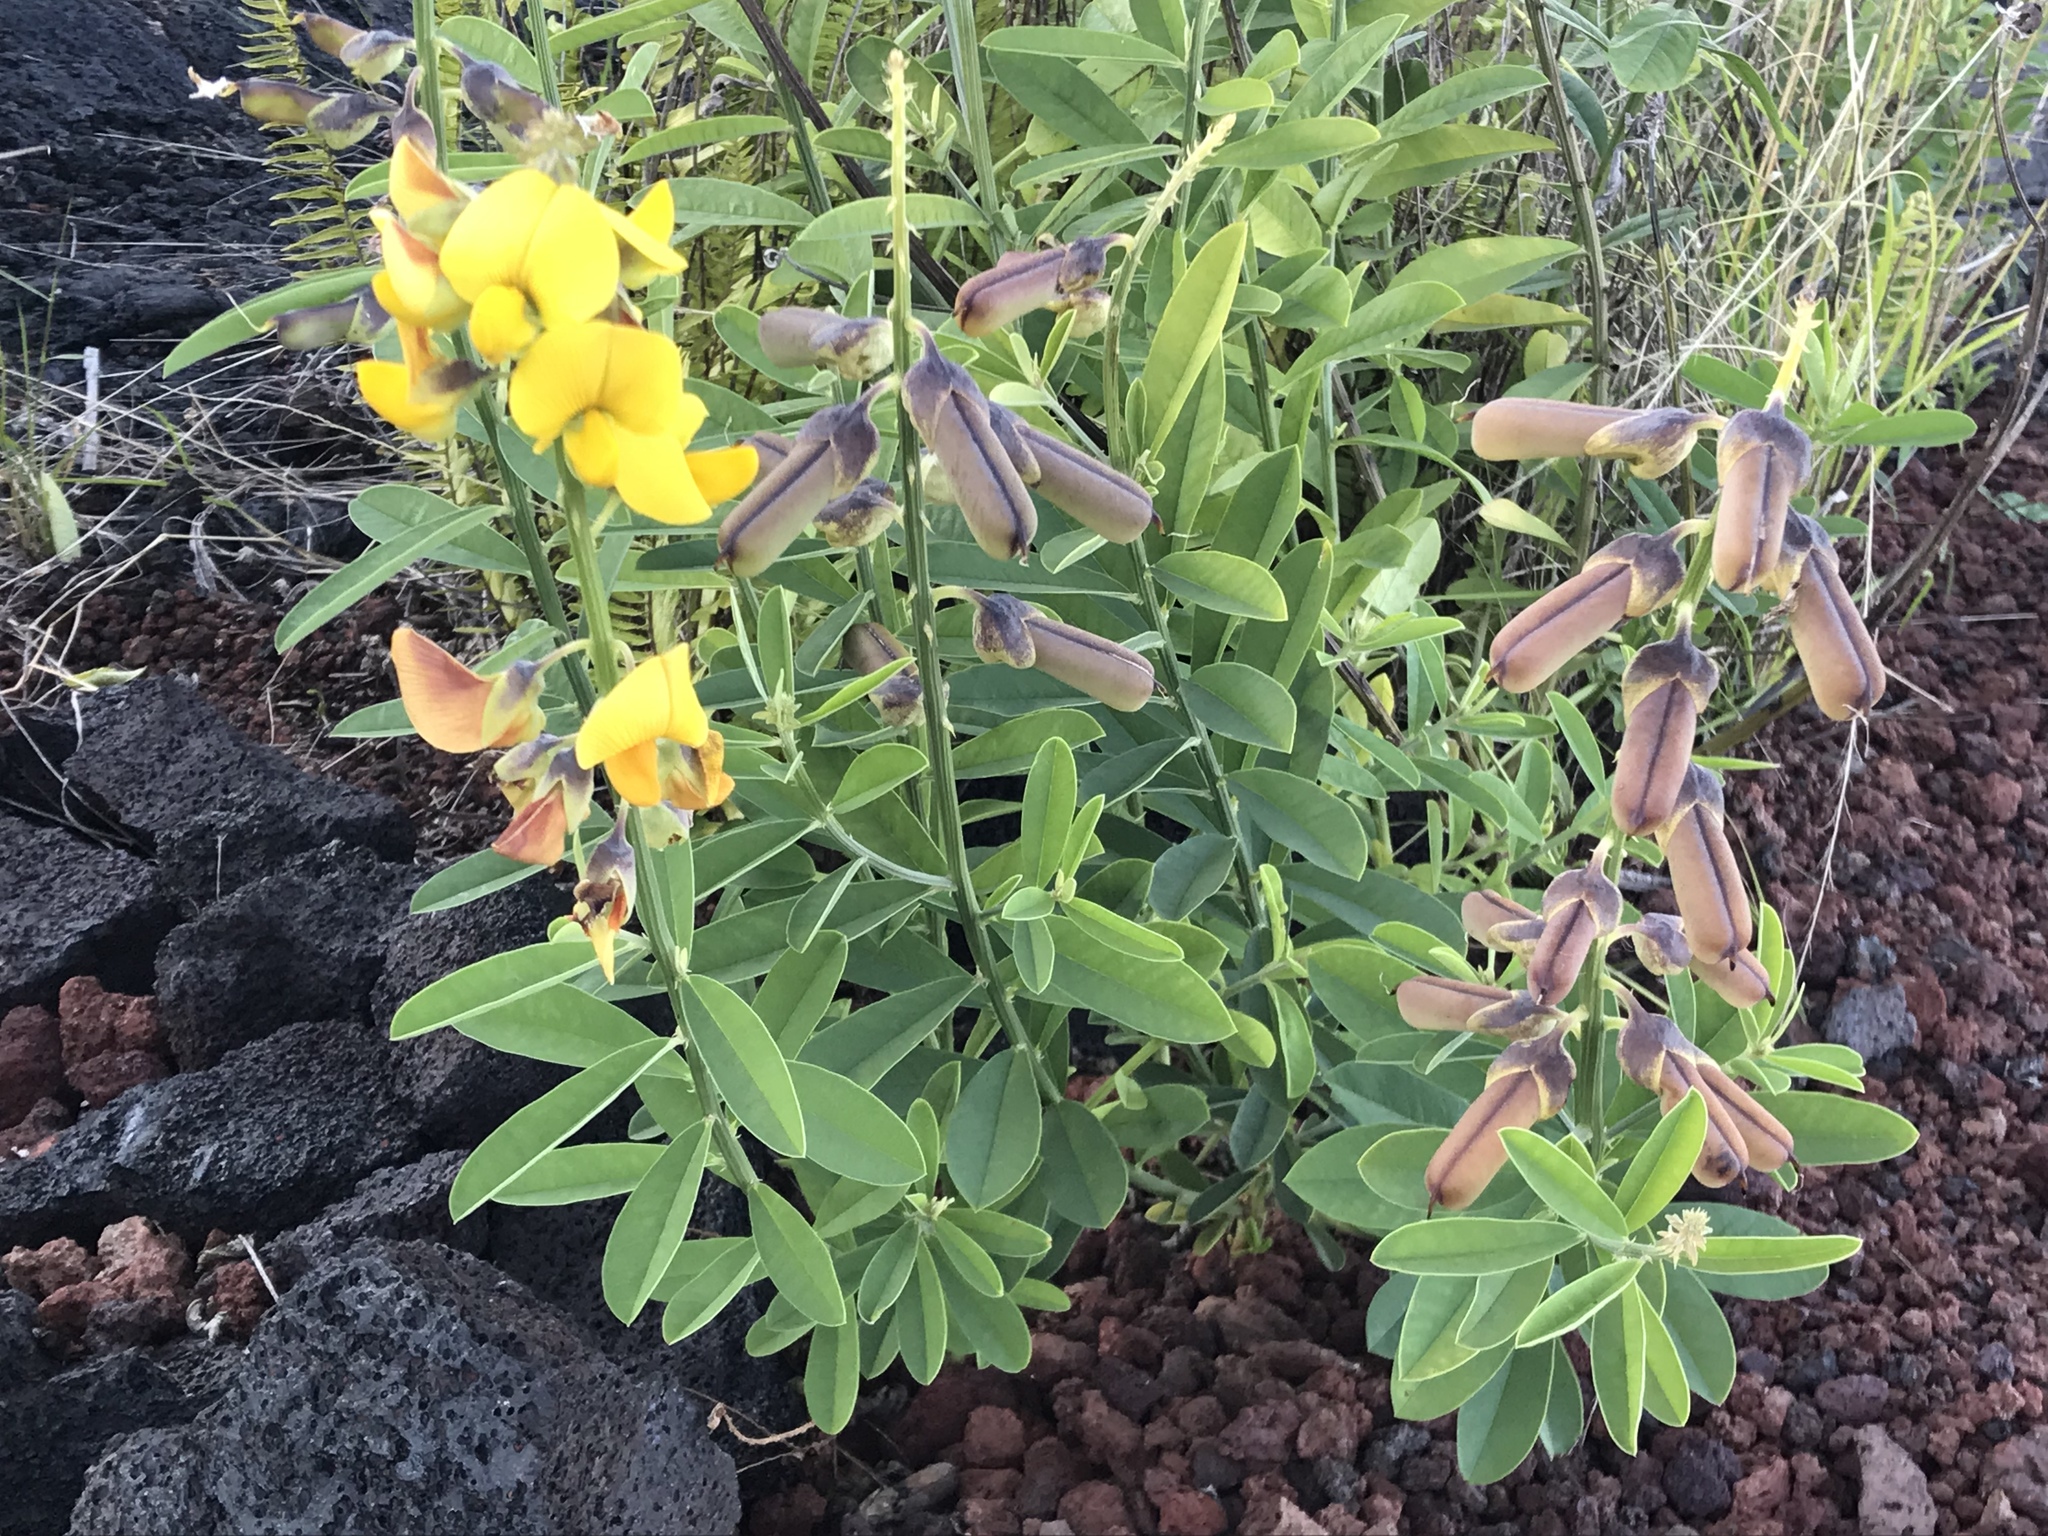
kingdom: Plantae
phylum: Tracheophyta
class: Magnoliopsida
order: Fabales
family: Fabaceae
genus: Crotalaria
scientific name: Crotalaria pumila
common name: Low rattlebox
